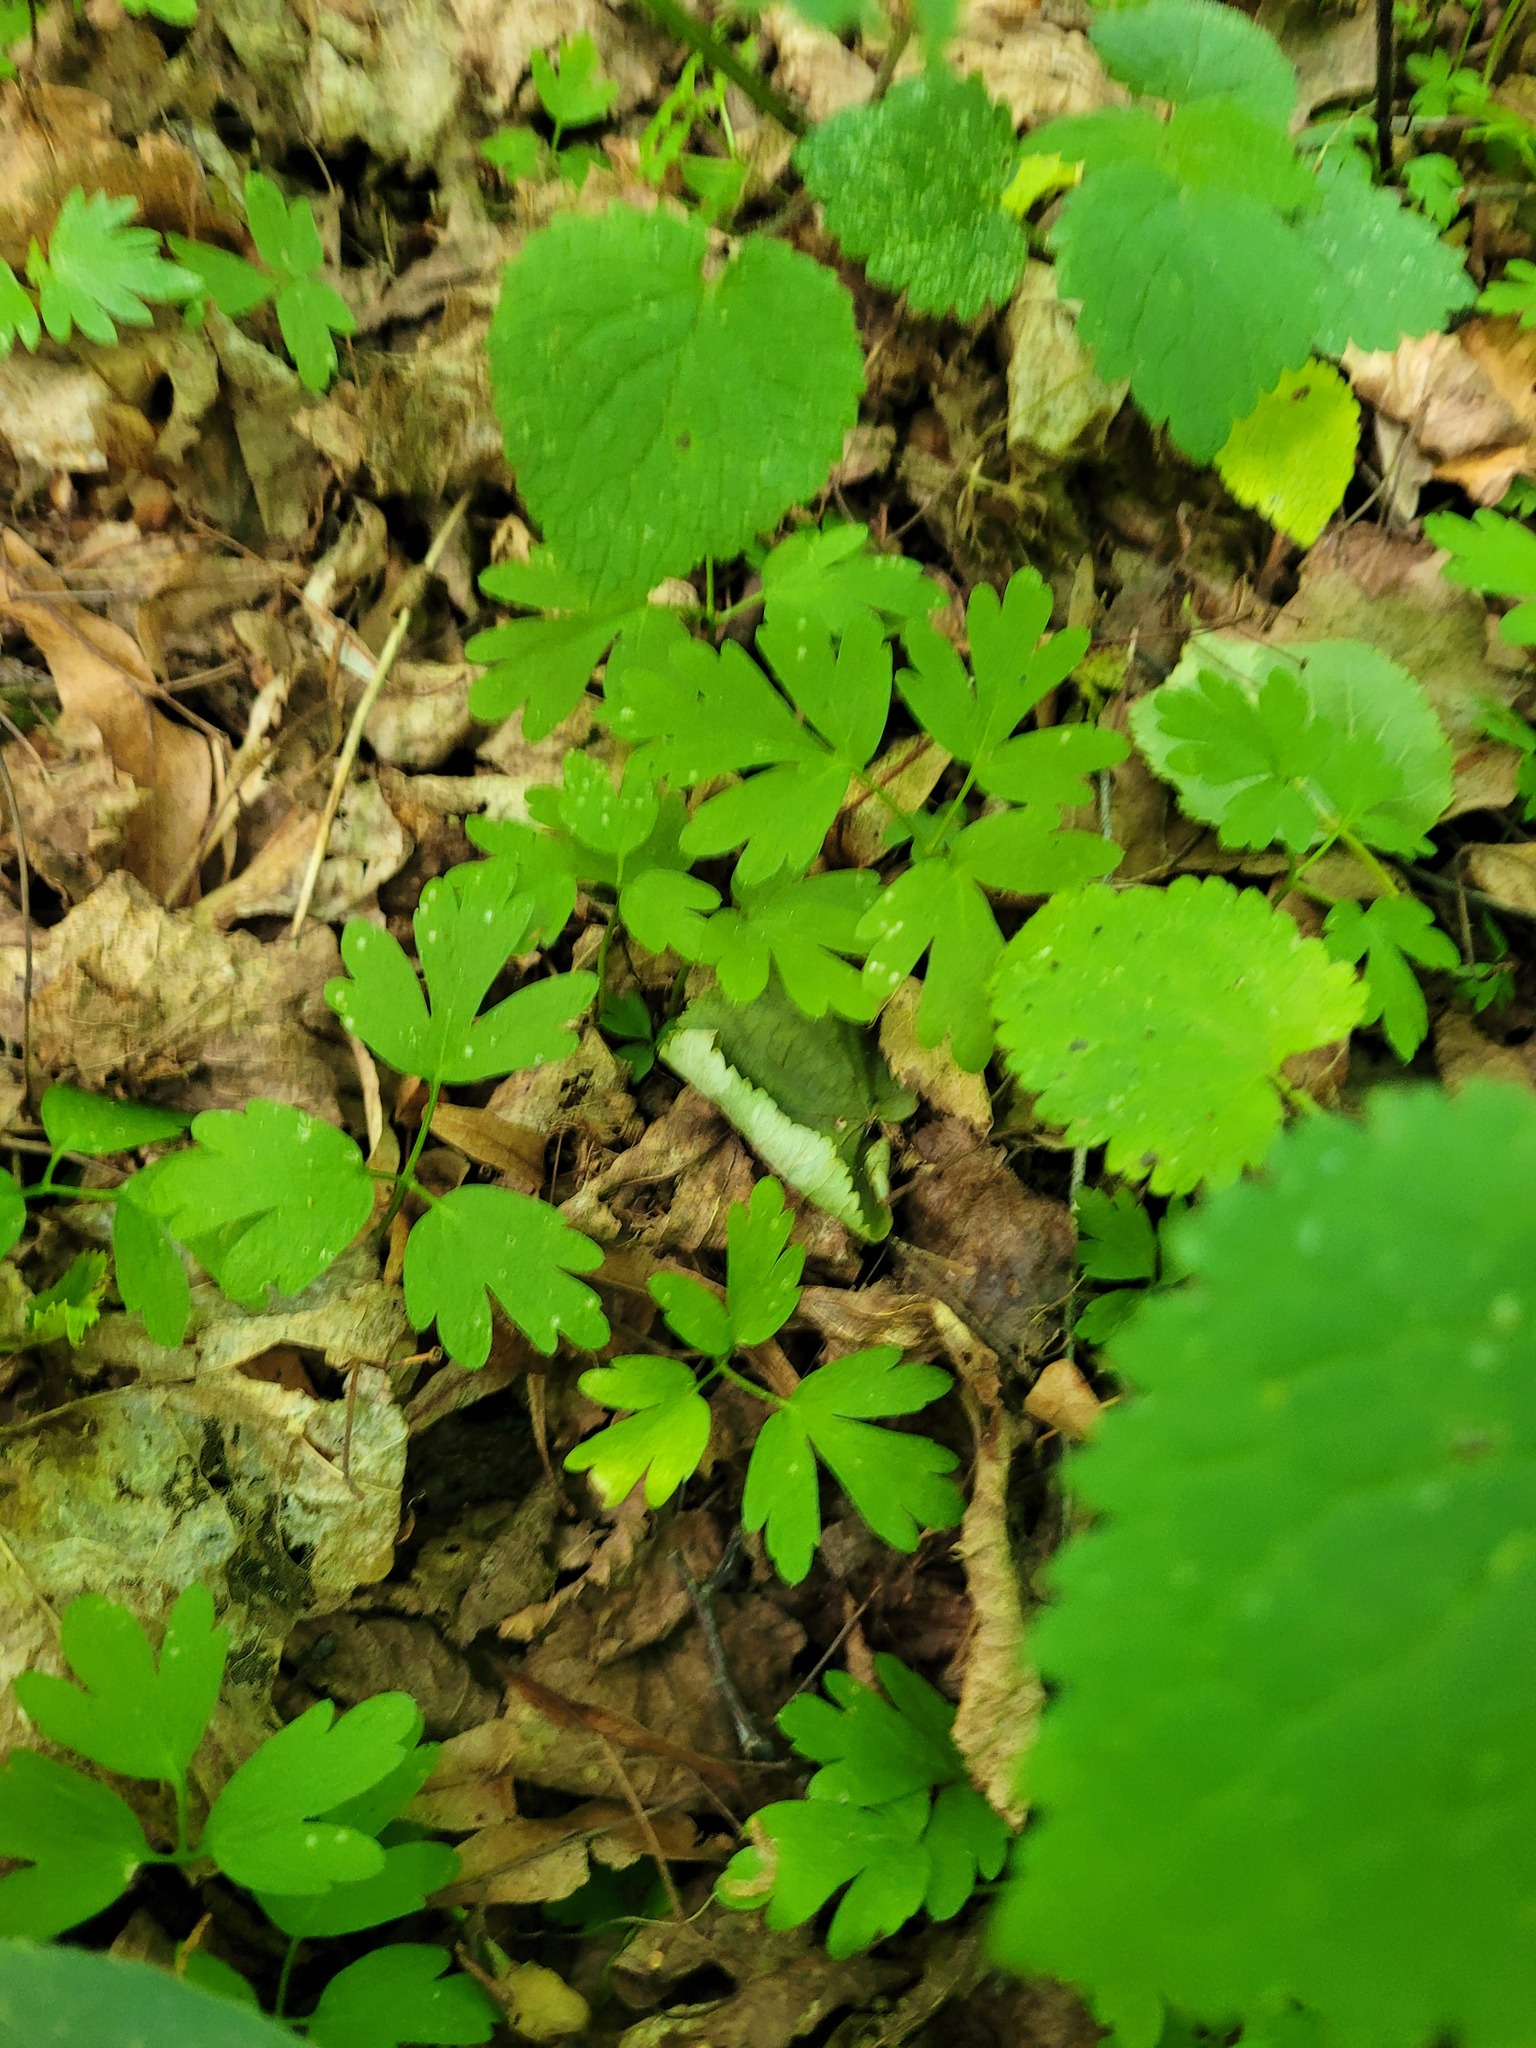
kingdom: Plantae
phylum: Tracheophyta
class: Magnoliopsida
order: Dipsacales
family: Viburnaceae
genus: Adoxa
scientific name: Adoxa moschatellina
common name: Moschatel
